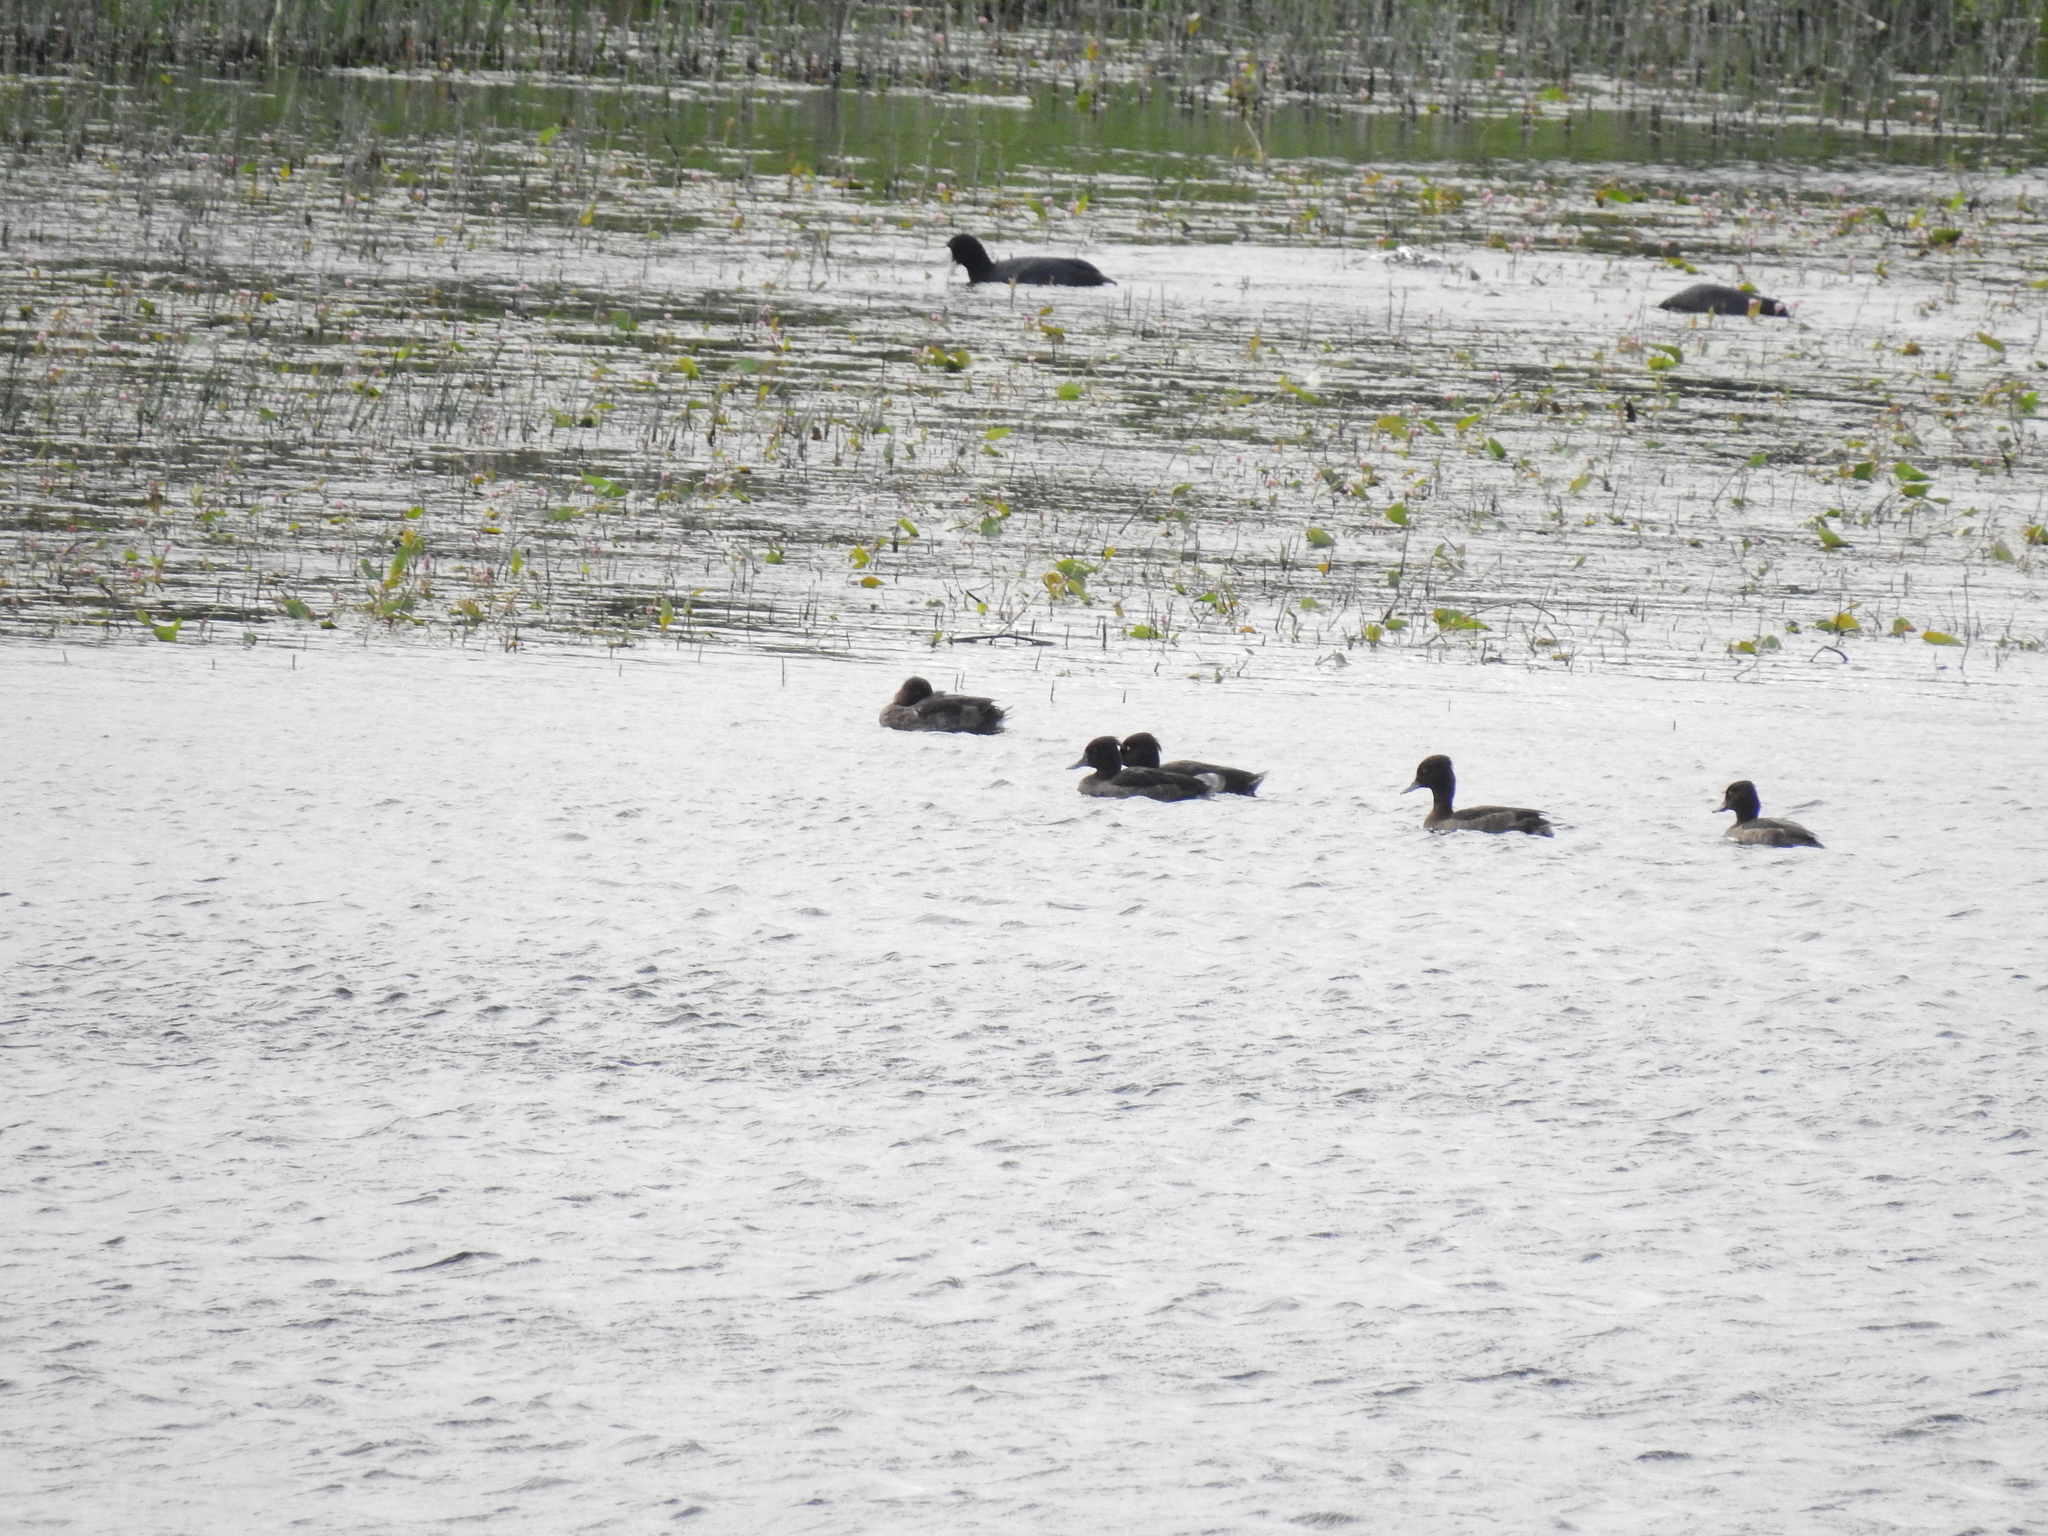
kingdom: Animalia
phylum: Chordata
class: Aves
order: Anseriformes
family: Anatidae
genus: Aythya
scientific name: Aythya fuligula
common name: Tufted duck
